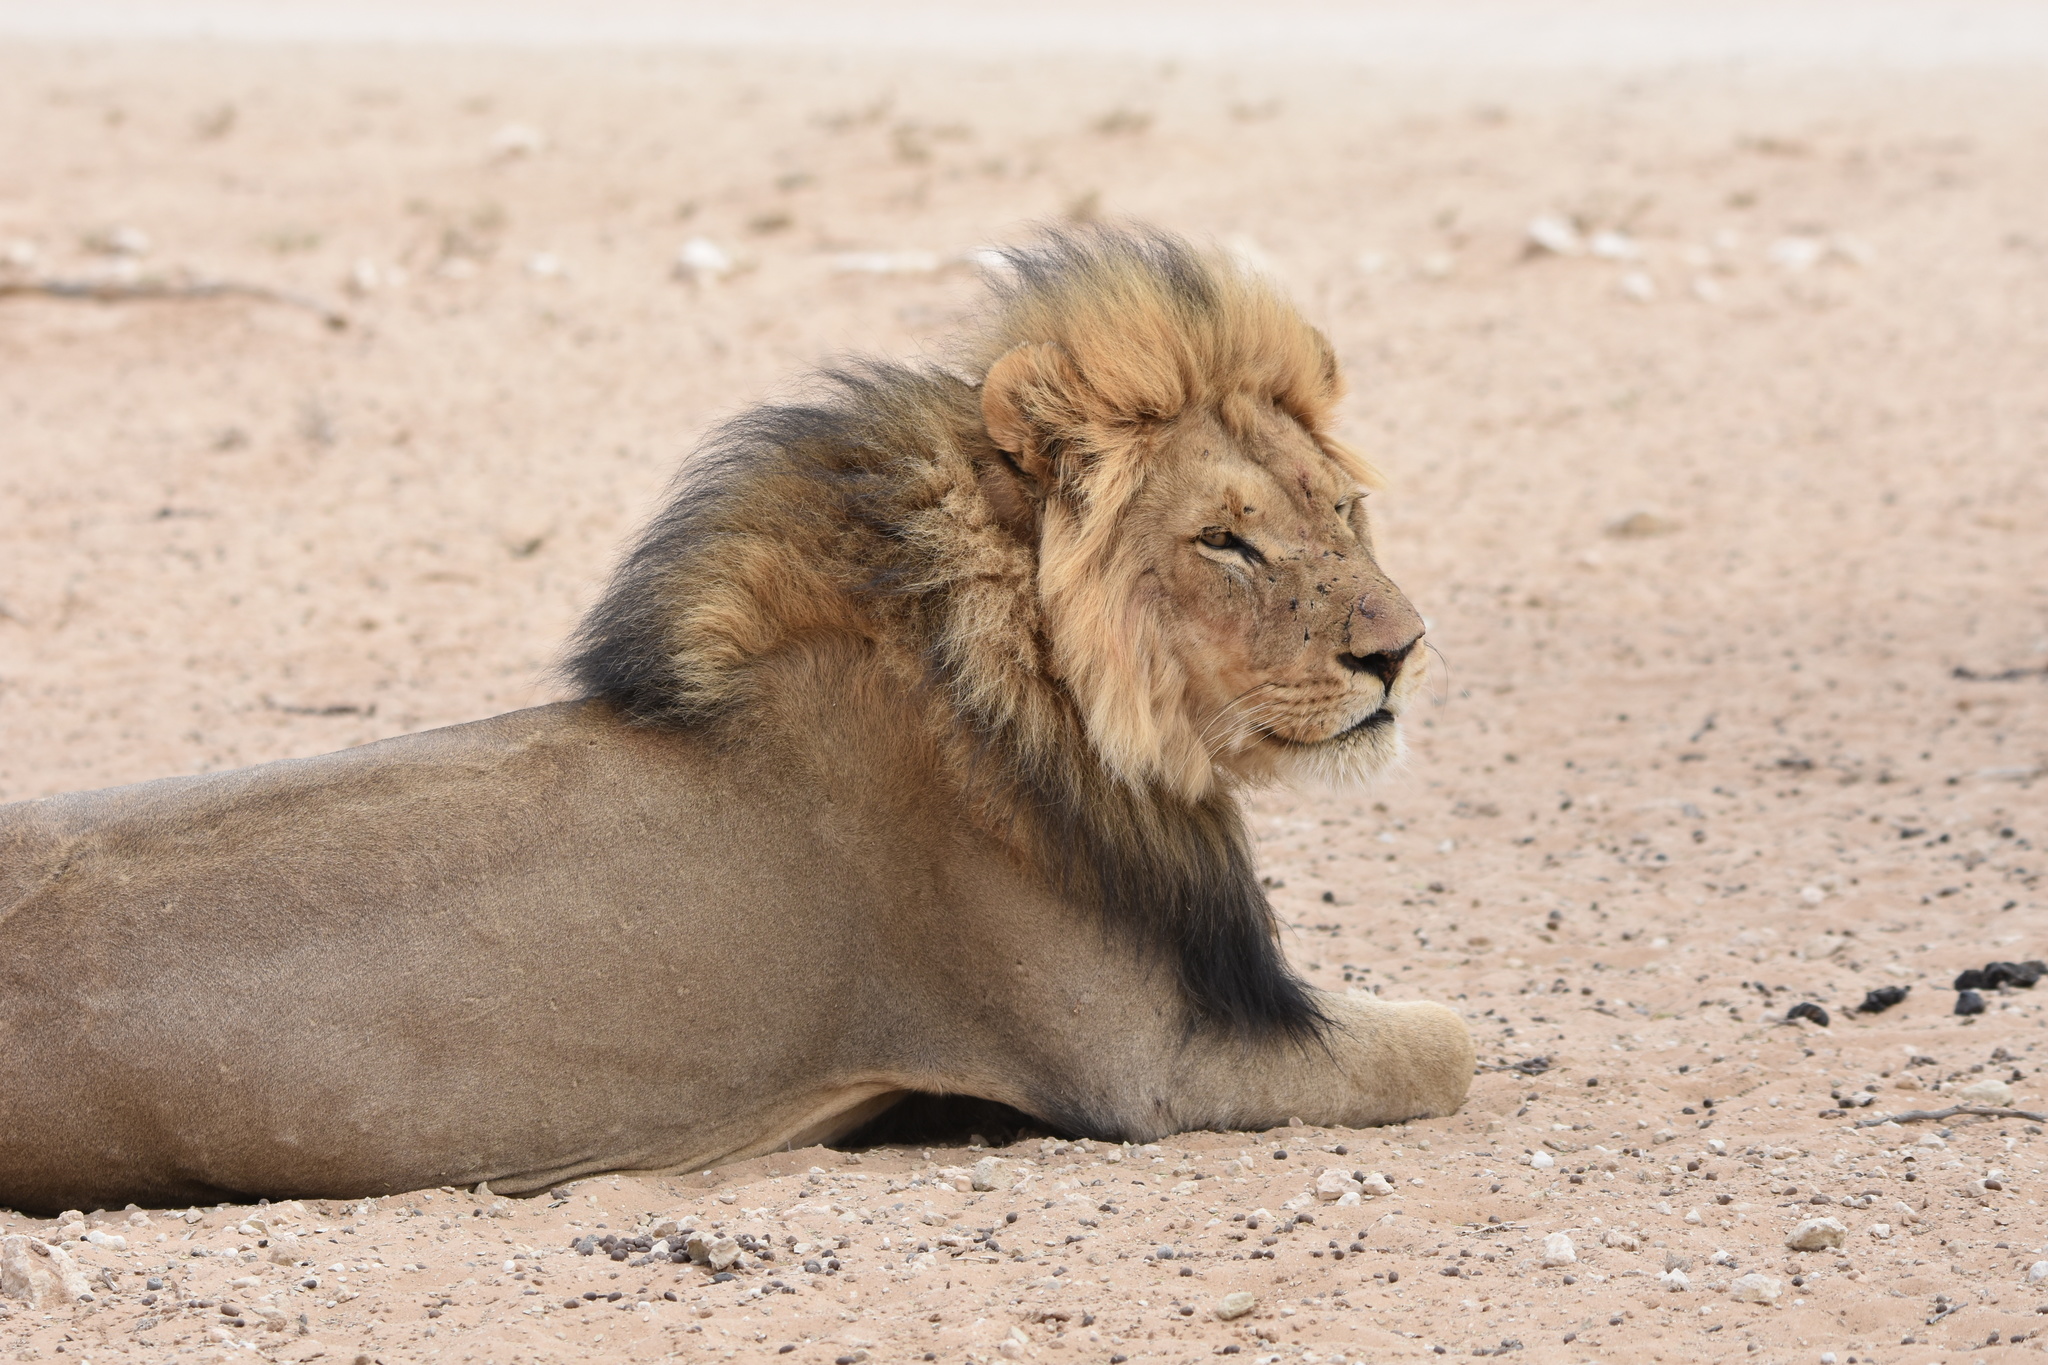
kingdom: Animalia
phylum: Chordata
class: Mammalia
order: Carnivora
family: Felidae
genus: Panthera
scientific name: Panthera leo
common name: Lion
